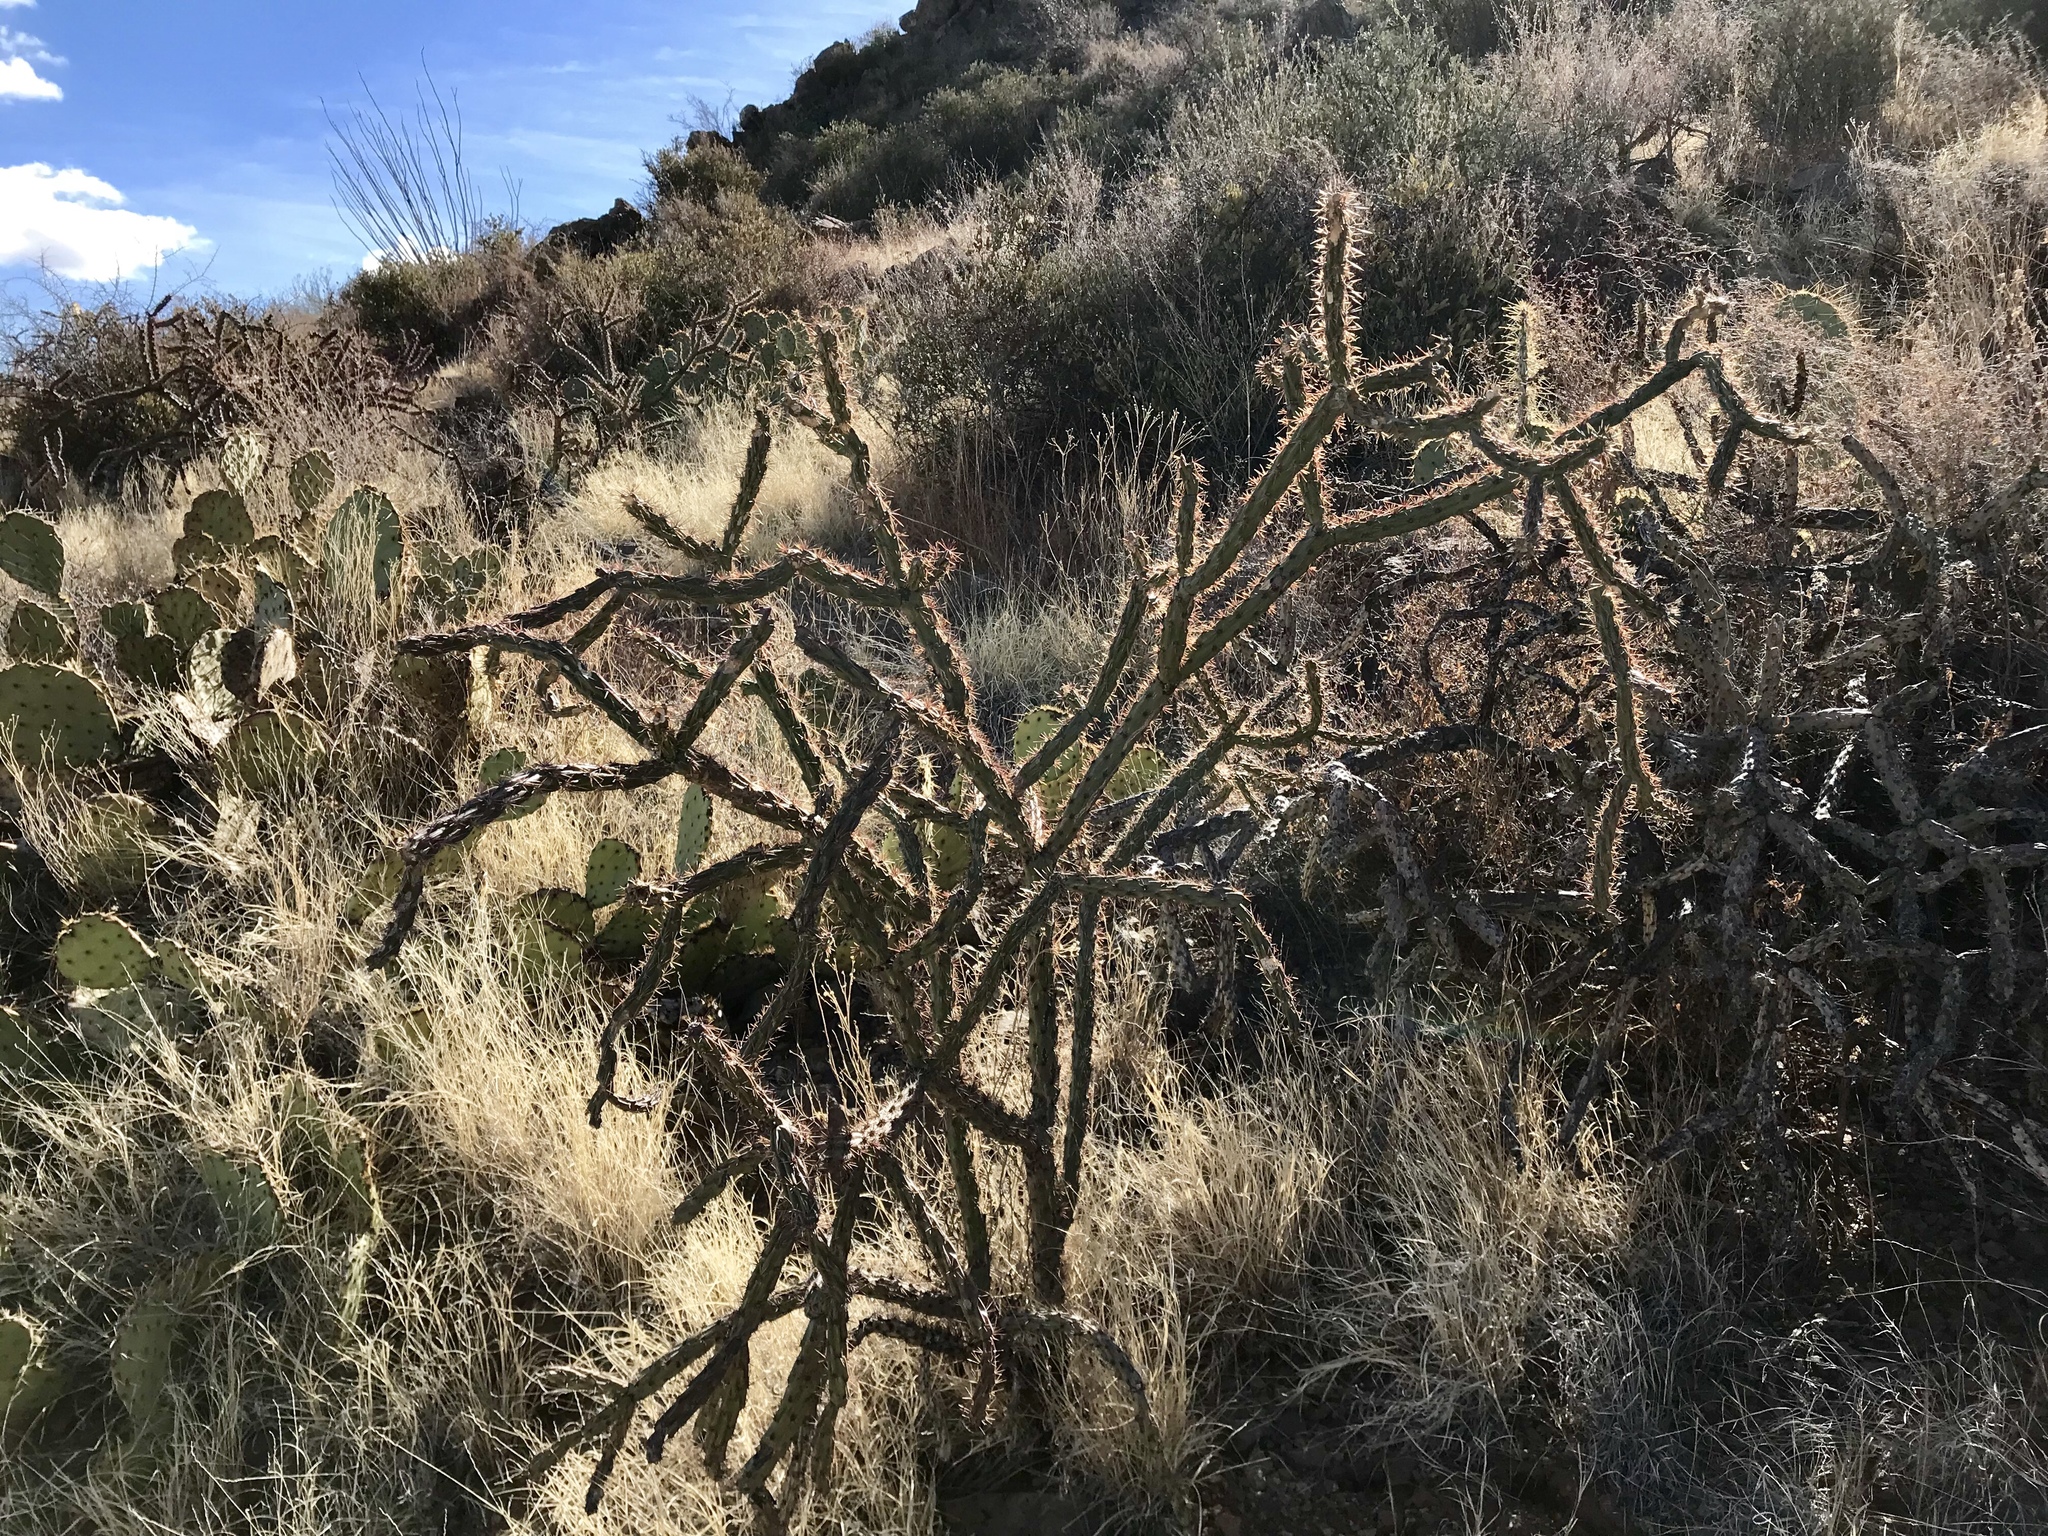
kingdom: Plantae
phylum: Tracheophyta
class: Magnoliopsida
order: Caryophyllales
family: Cactaceae
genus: Cylindropuntia
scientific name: Cylindropuntia imbricata
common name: Candelabrum cactus
